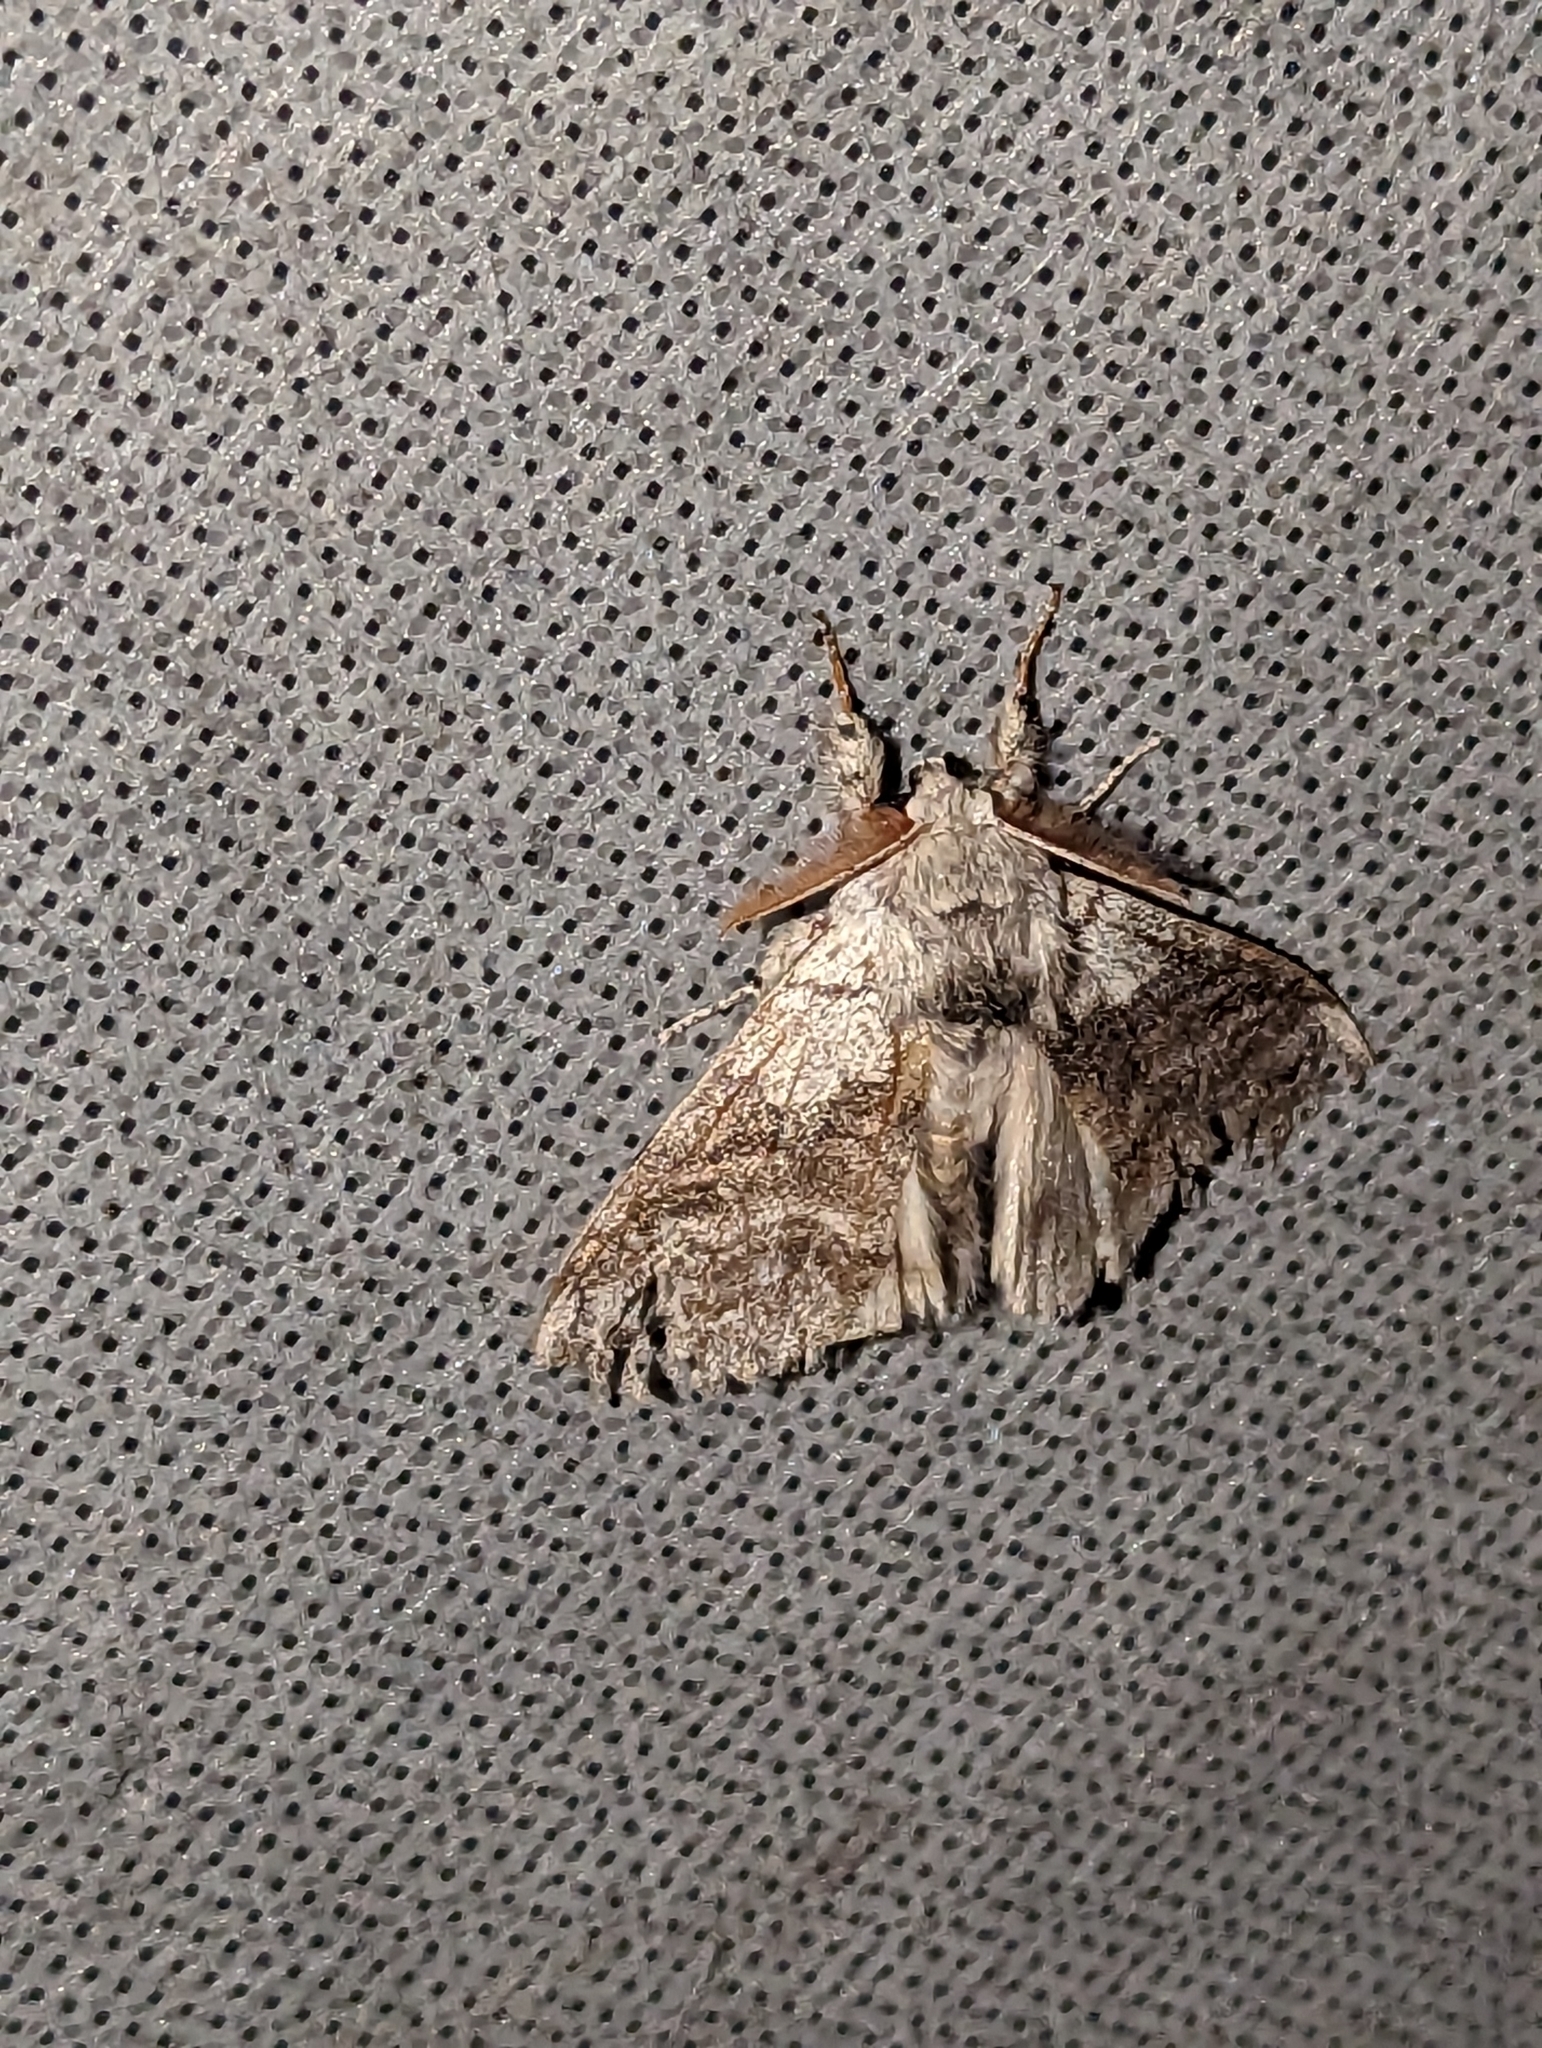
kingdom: Animalia
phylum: Arthropoda
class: Insecta
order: Lepidoptera
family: Erebidae
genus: Calliteara
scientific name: Calliteara pudibunda
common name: Pale tussock
